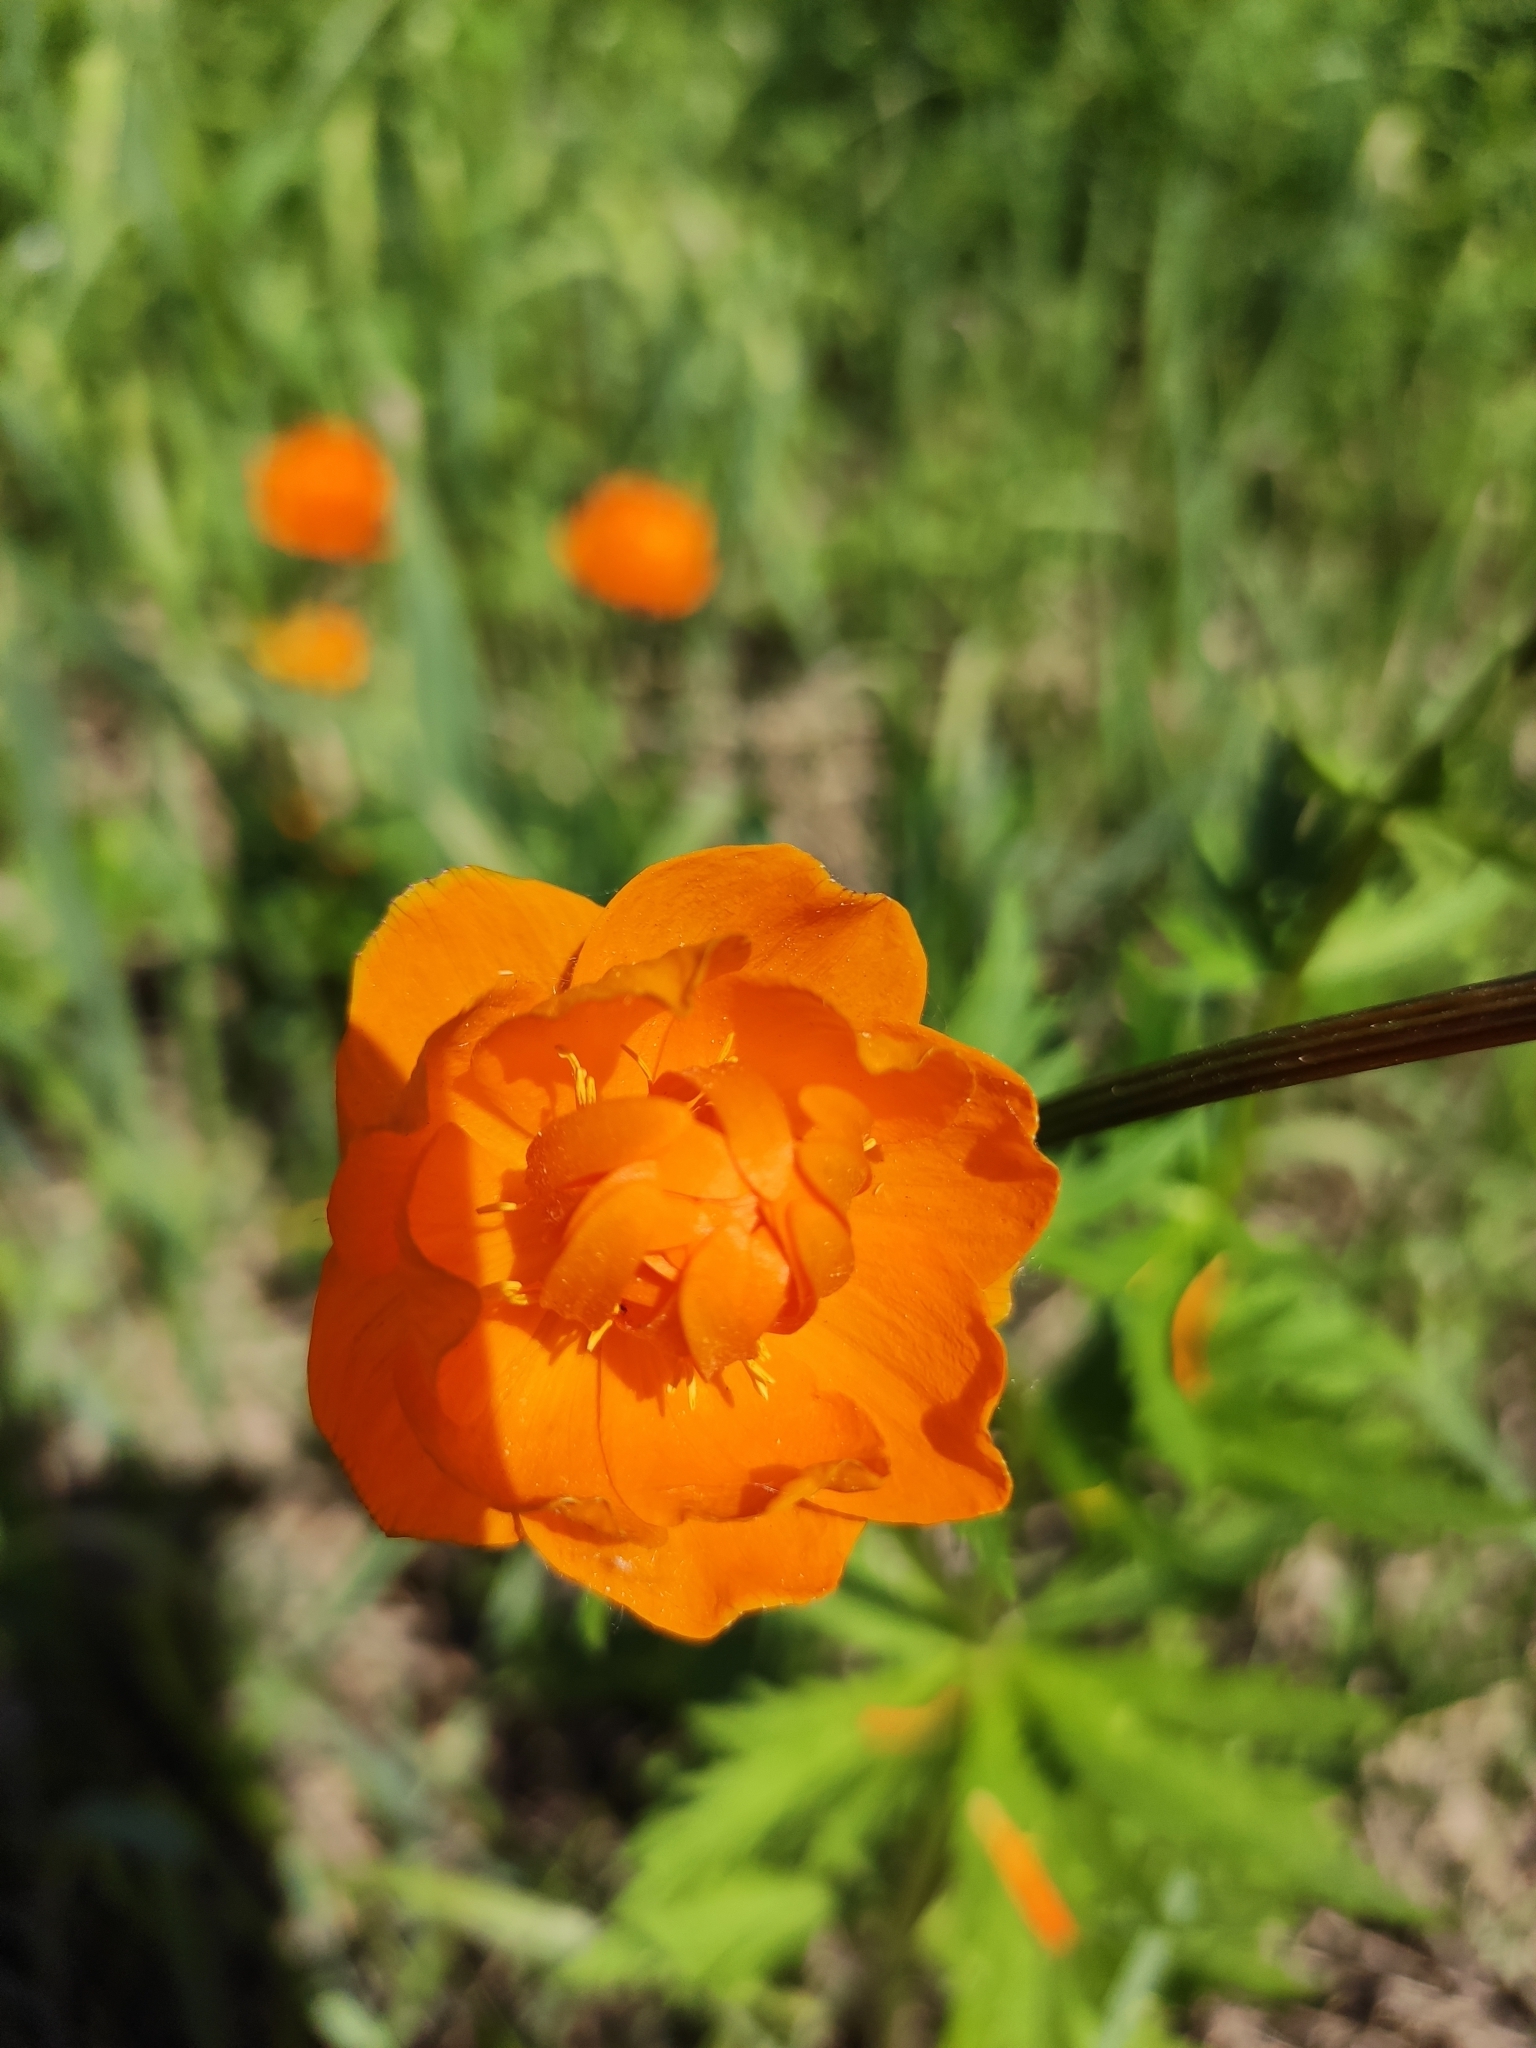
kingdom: Plantae
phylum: Tracheophyta
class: Magnoliopsida
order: Ranunculales
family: Ranunculaceae
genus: Trollius
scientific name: Trollius asiaticus
